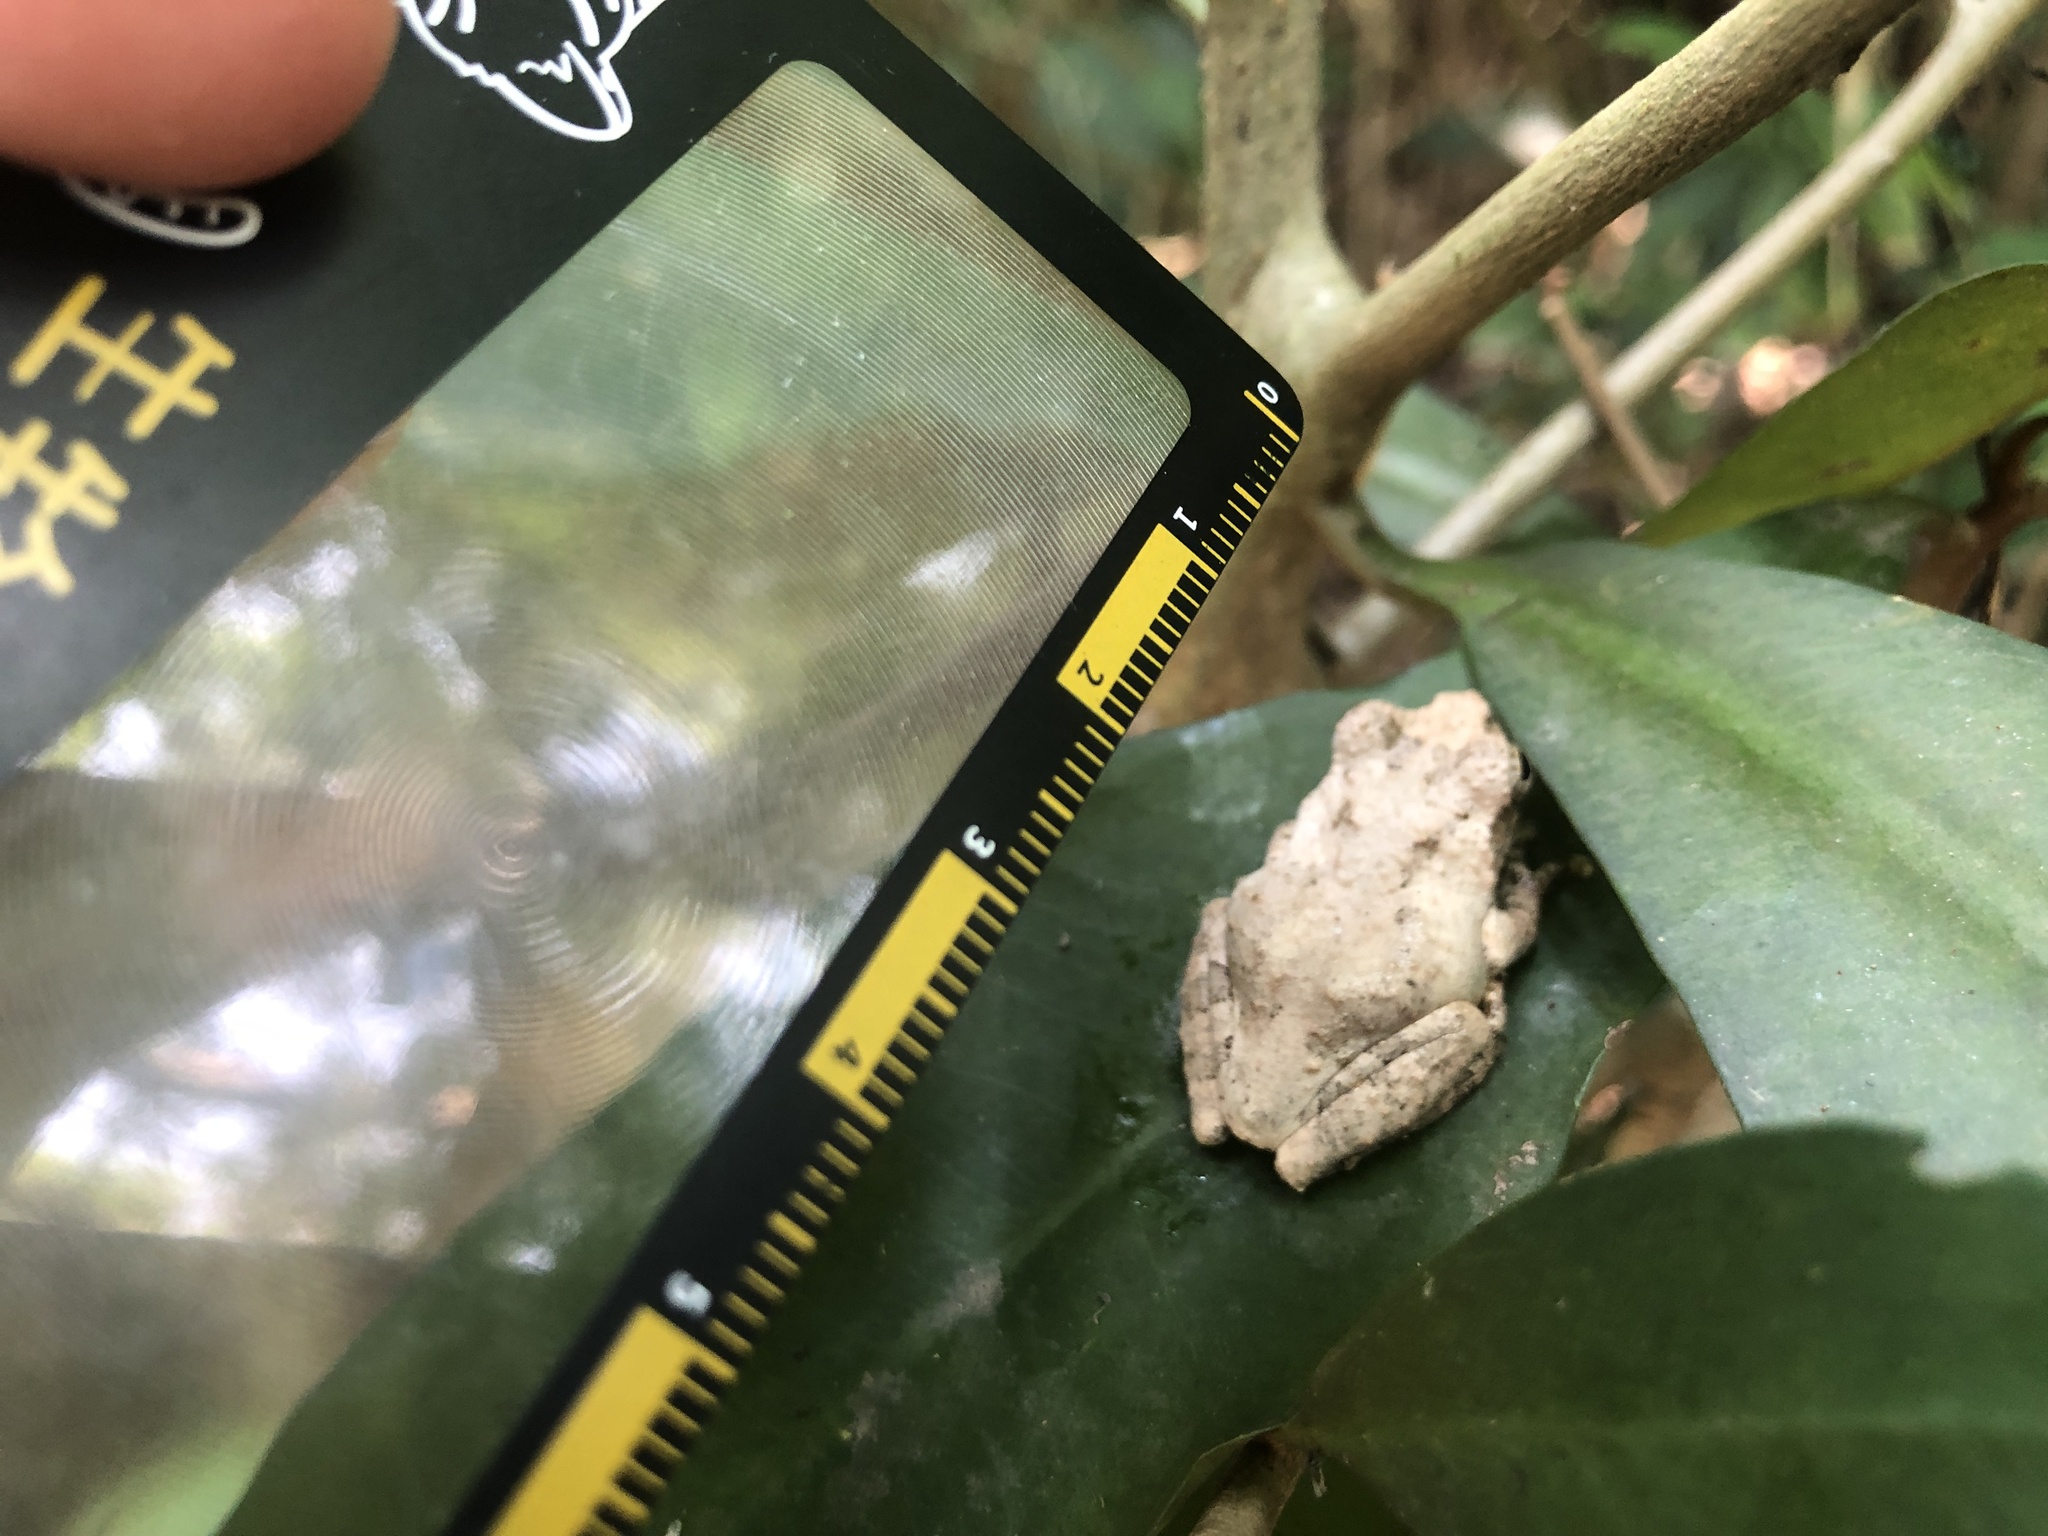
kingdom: Animalia
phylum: Chordata
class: Amphibia
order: Anura
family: Rhacophoridae
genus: Kurixalus
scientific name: Kurixalus idiootocus
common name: Temple treefrog
